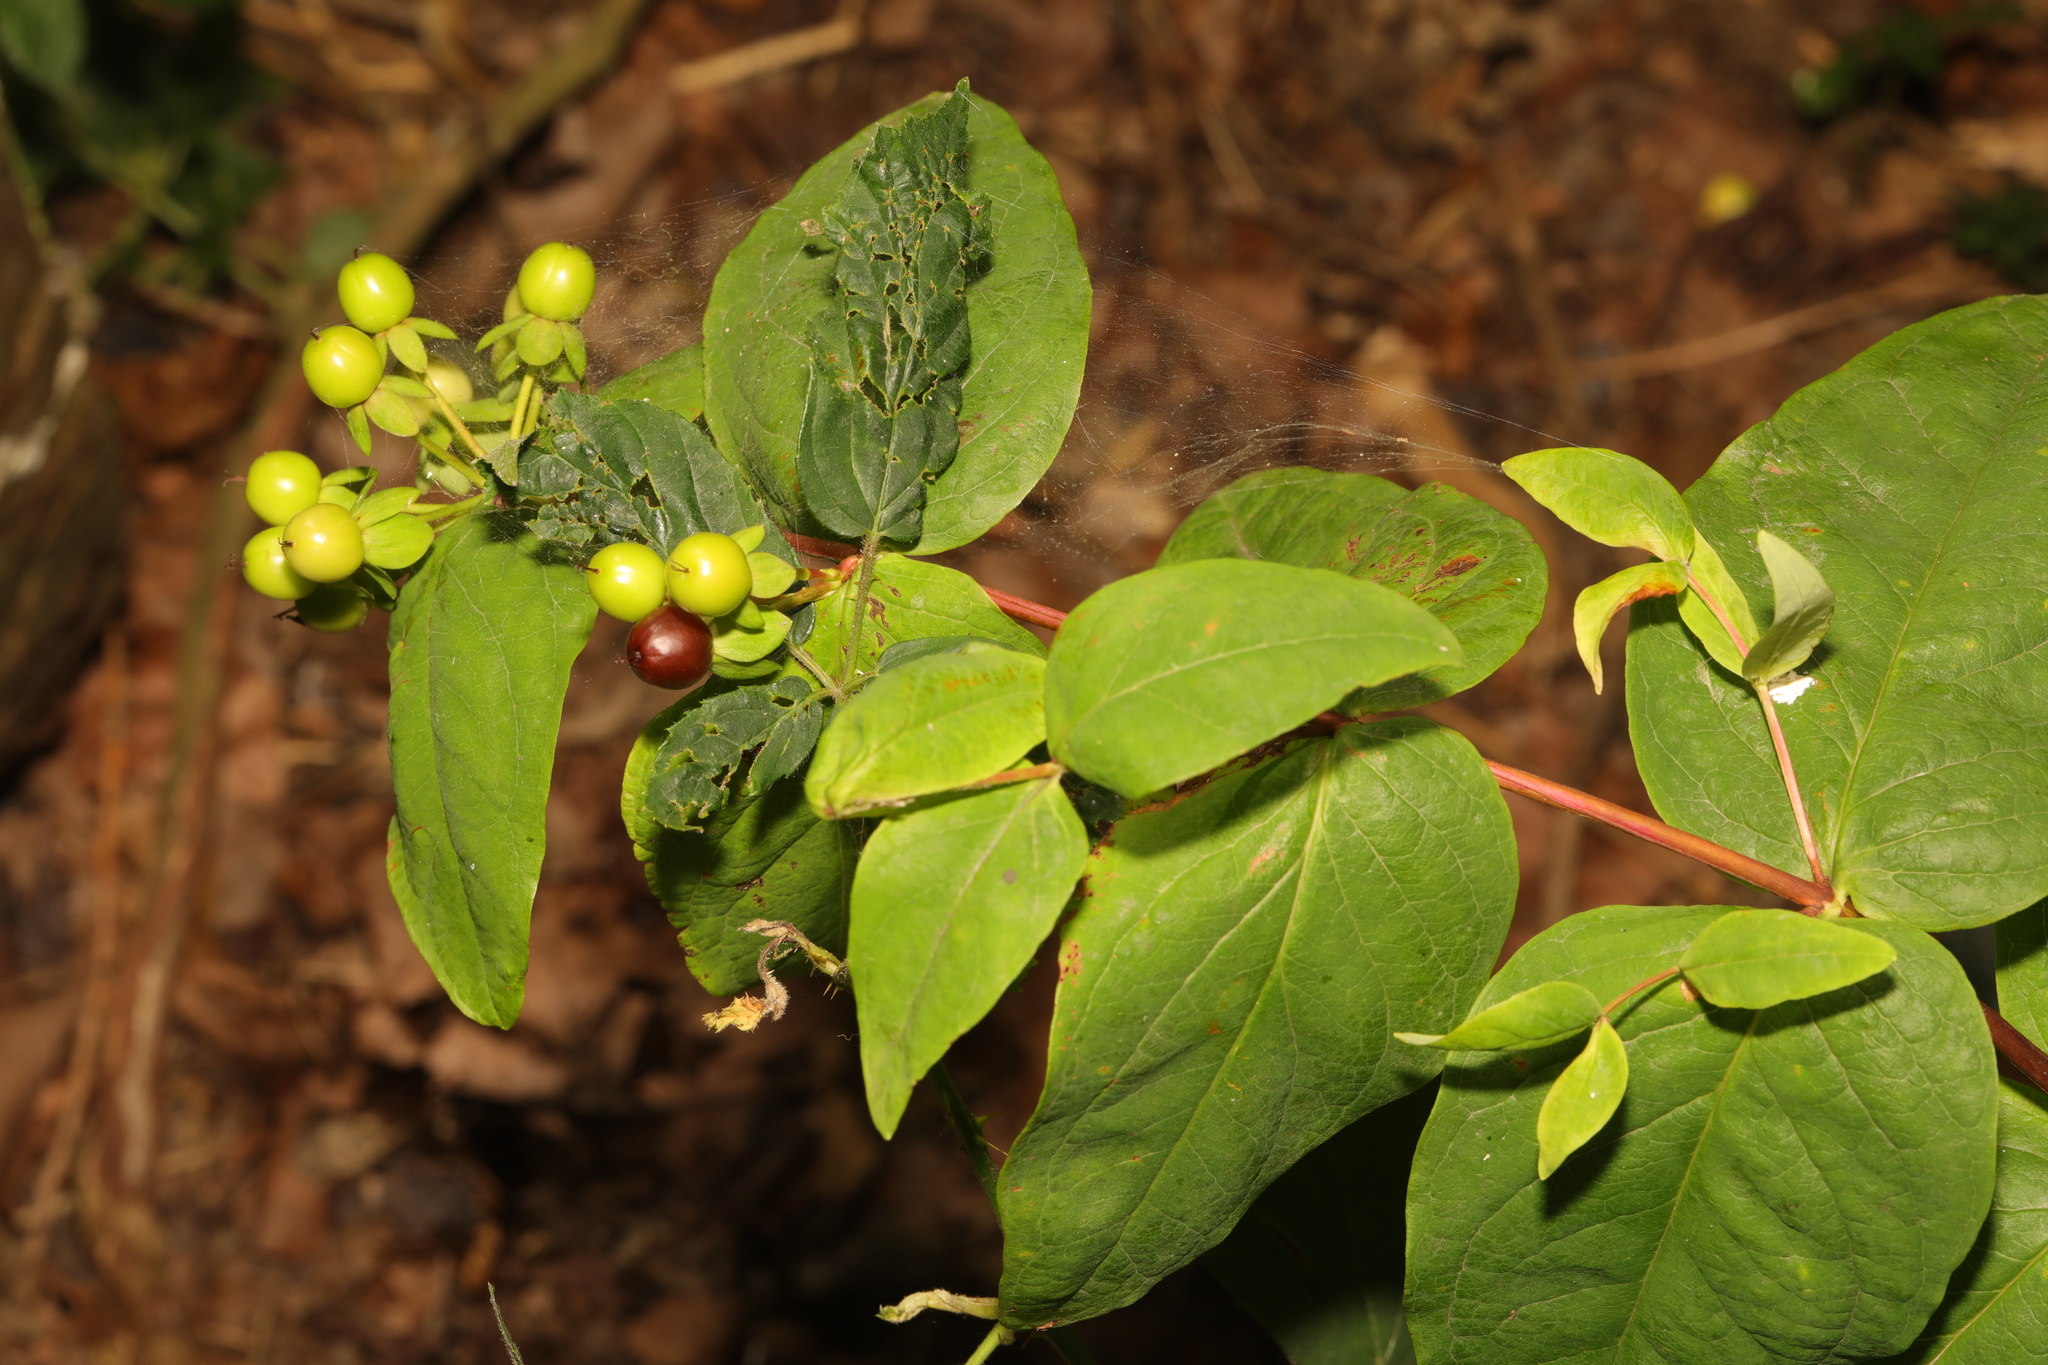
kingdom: Plantae
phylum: Tracheophyta
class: Magnoliopsida
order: Malpighiales
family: Hypericaceae
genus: Hypericum
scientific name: Hypericum androsaemum
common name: Sweet-amber
